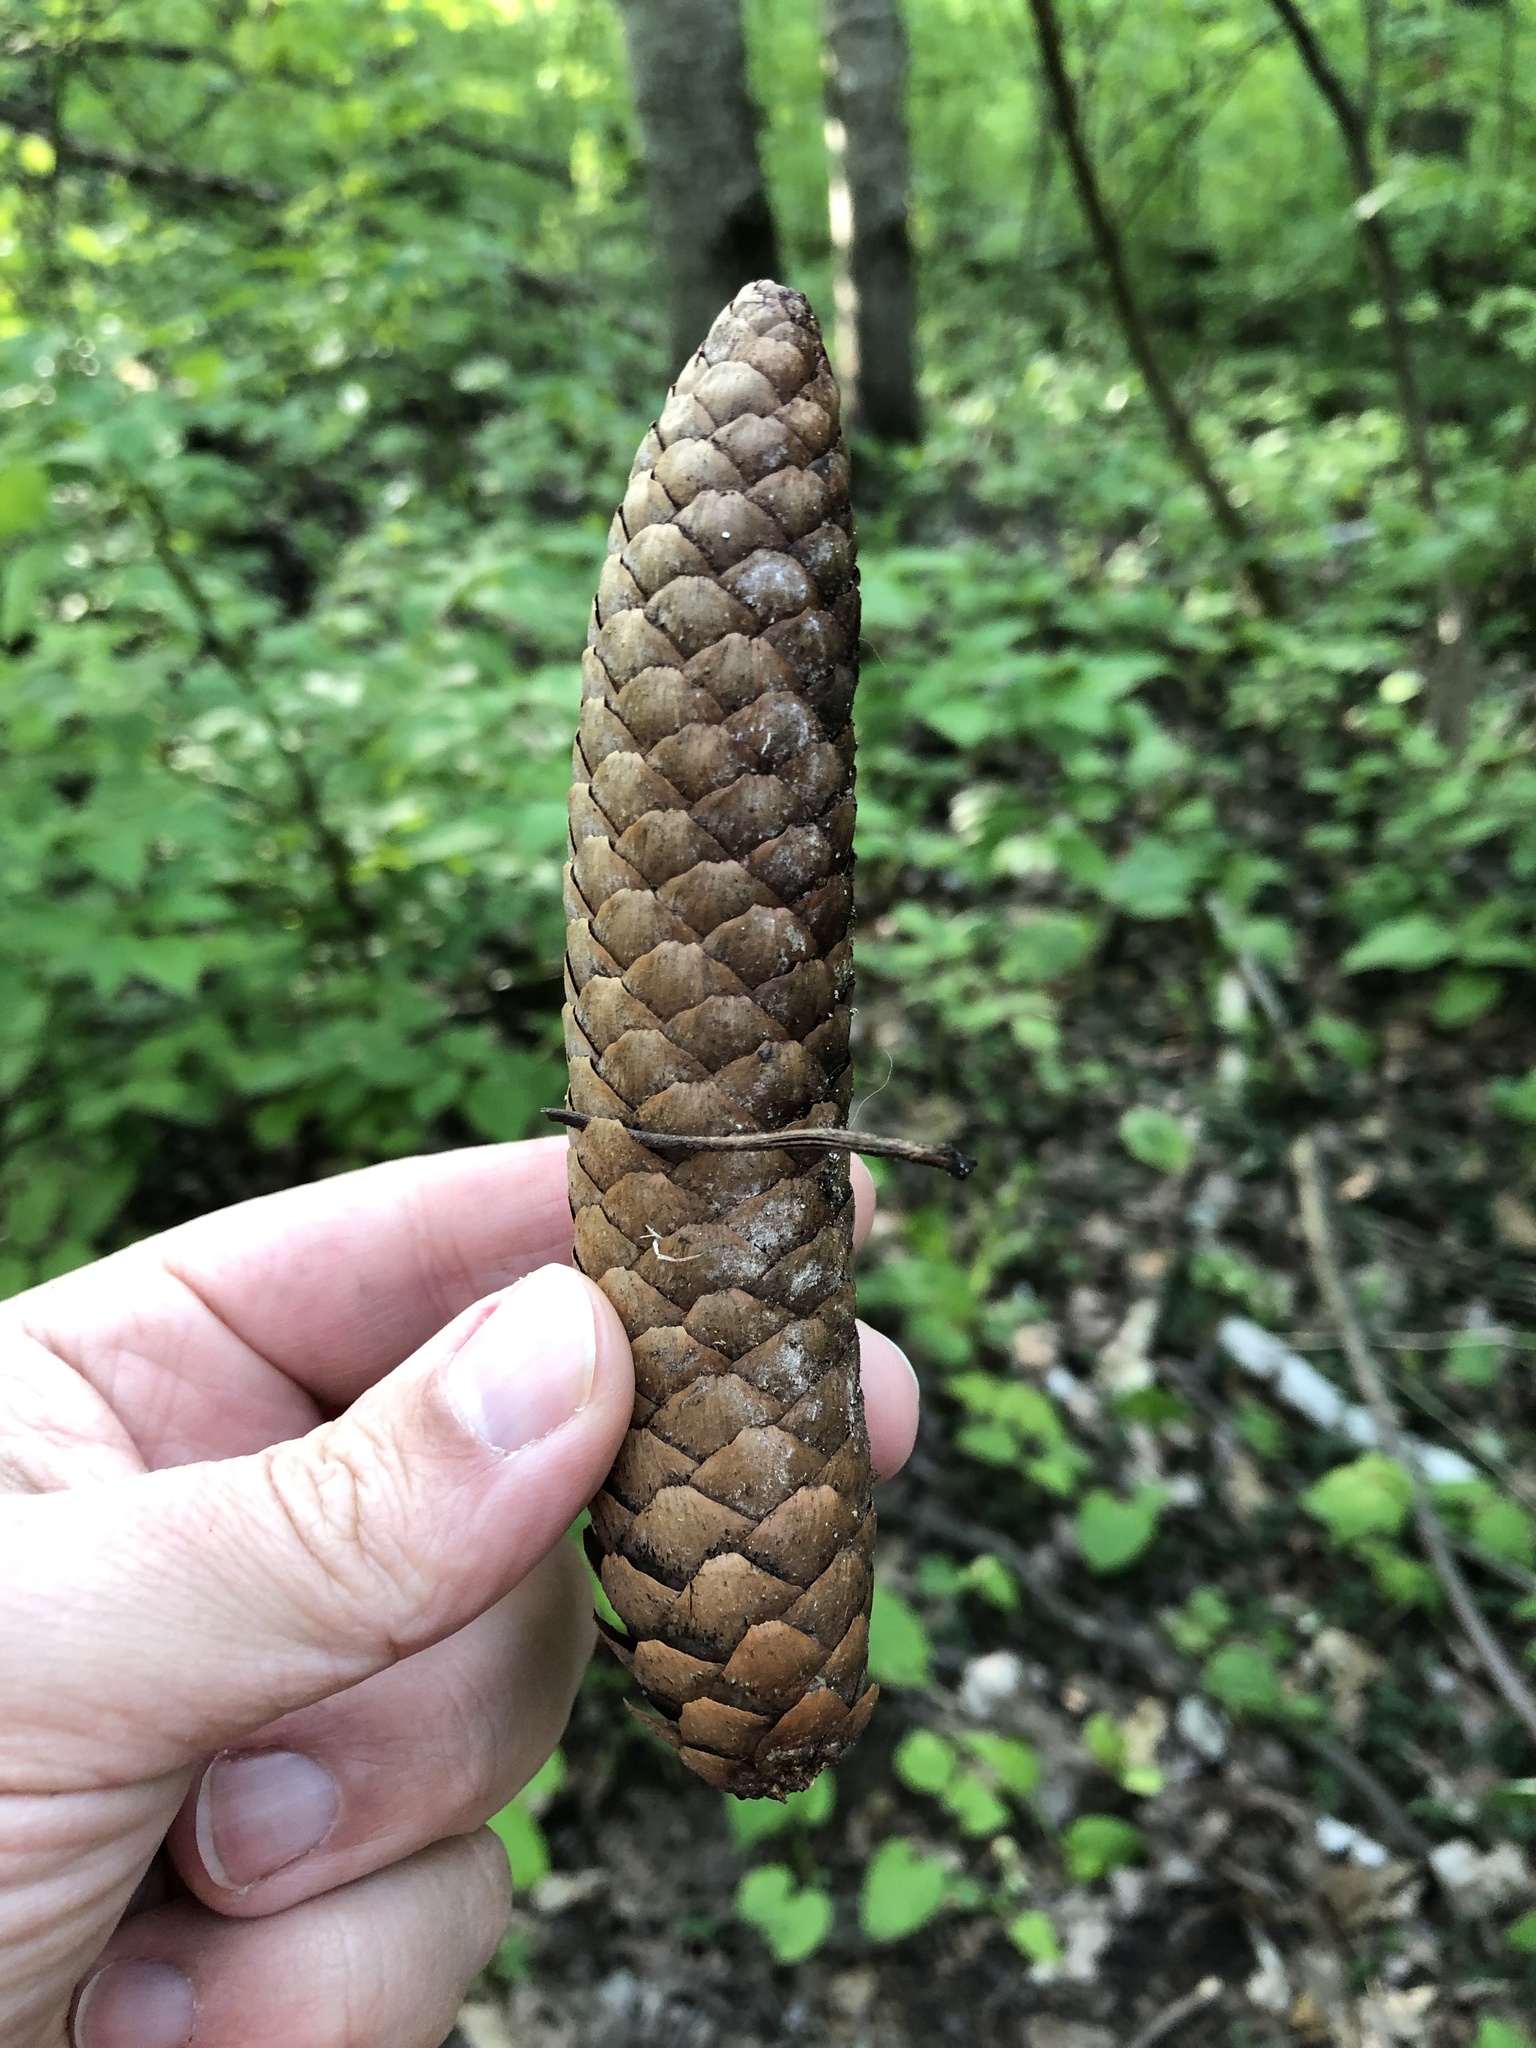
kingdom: Plantae
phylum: Tracheophyta
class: Pinopsida
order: Pinales
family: Pinaceae
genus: Picea
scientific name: Picea abies
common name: Norway spruce
